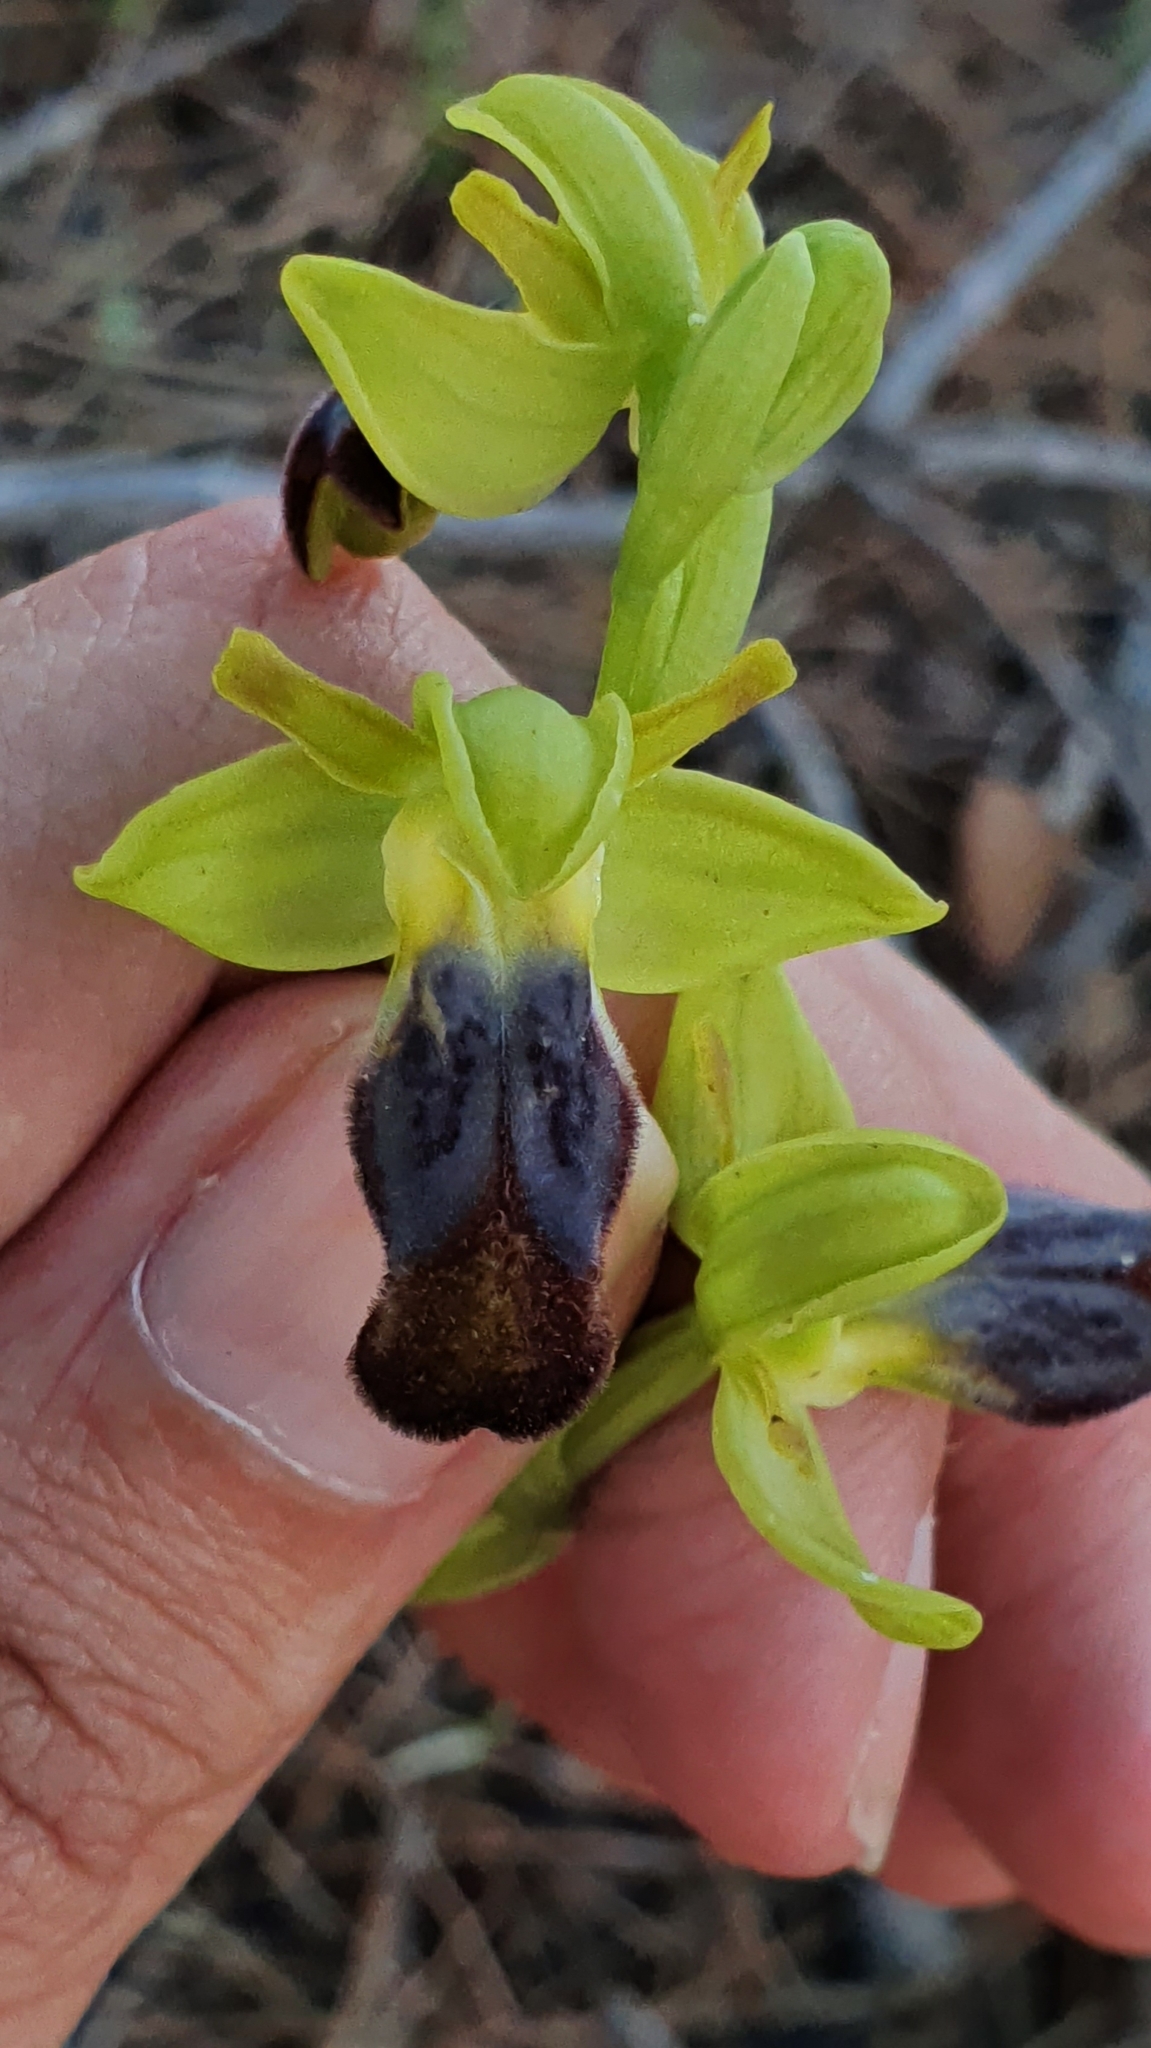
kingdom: Plantae
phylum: Tracheophyta
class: Liliopsida
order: Asparagales
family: Orchidaceae
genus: Ophrys
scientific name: Ophrys fusca
